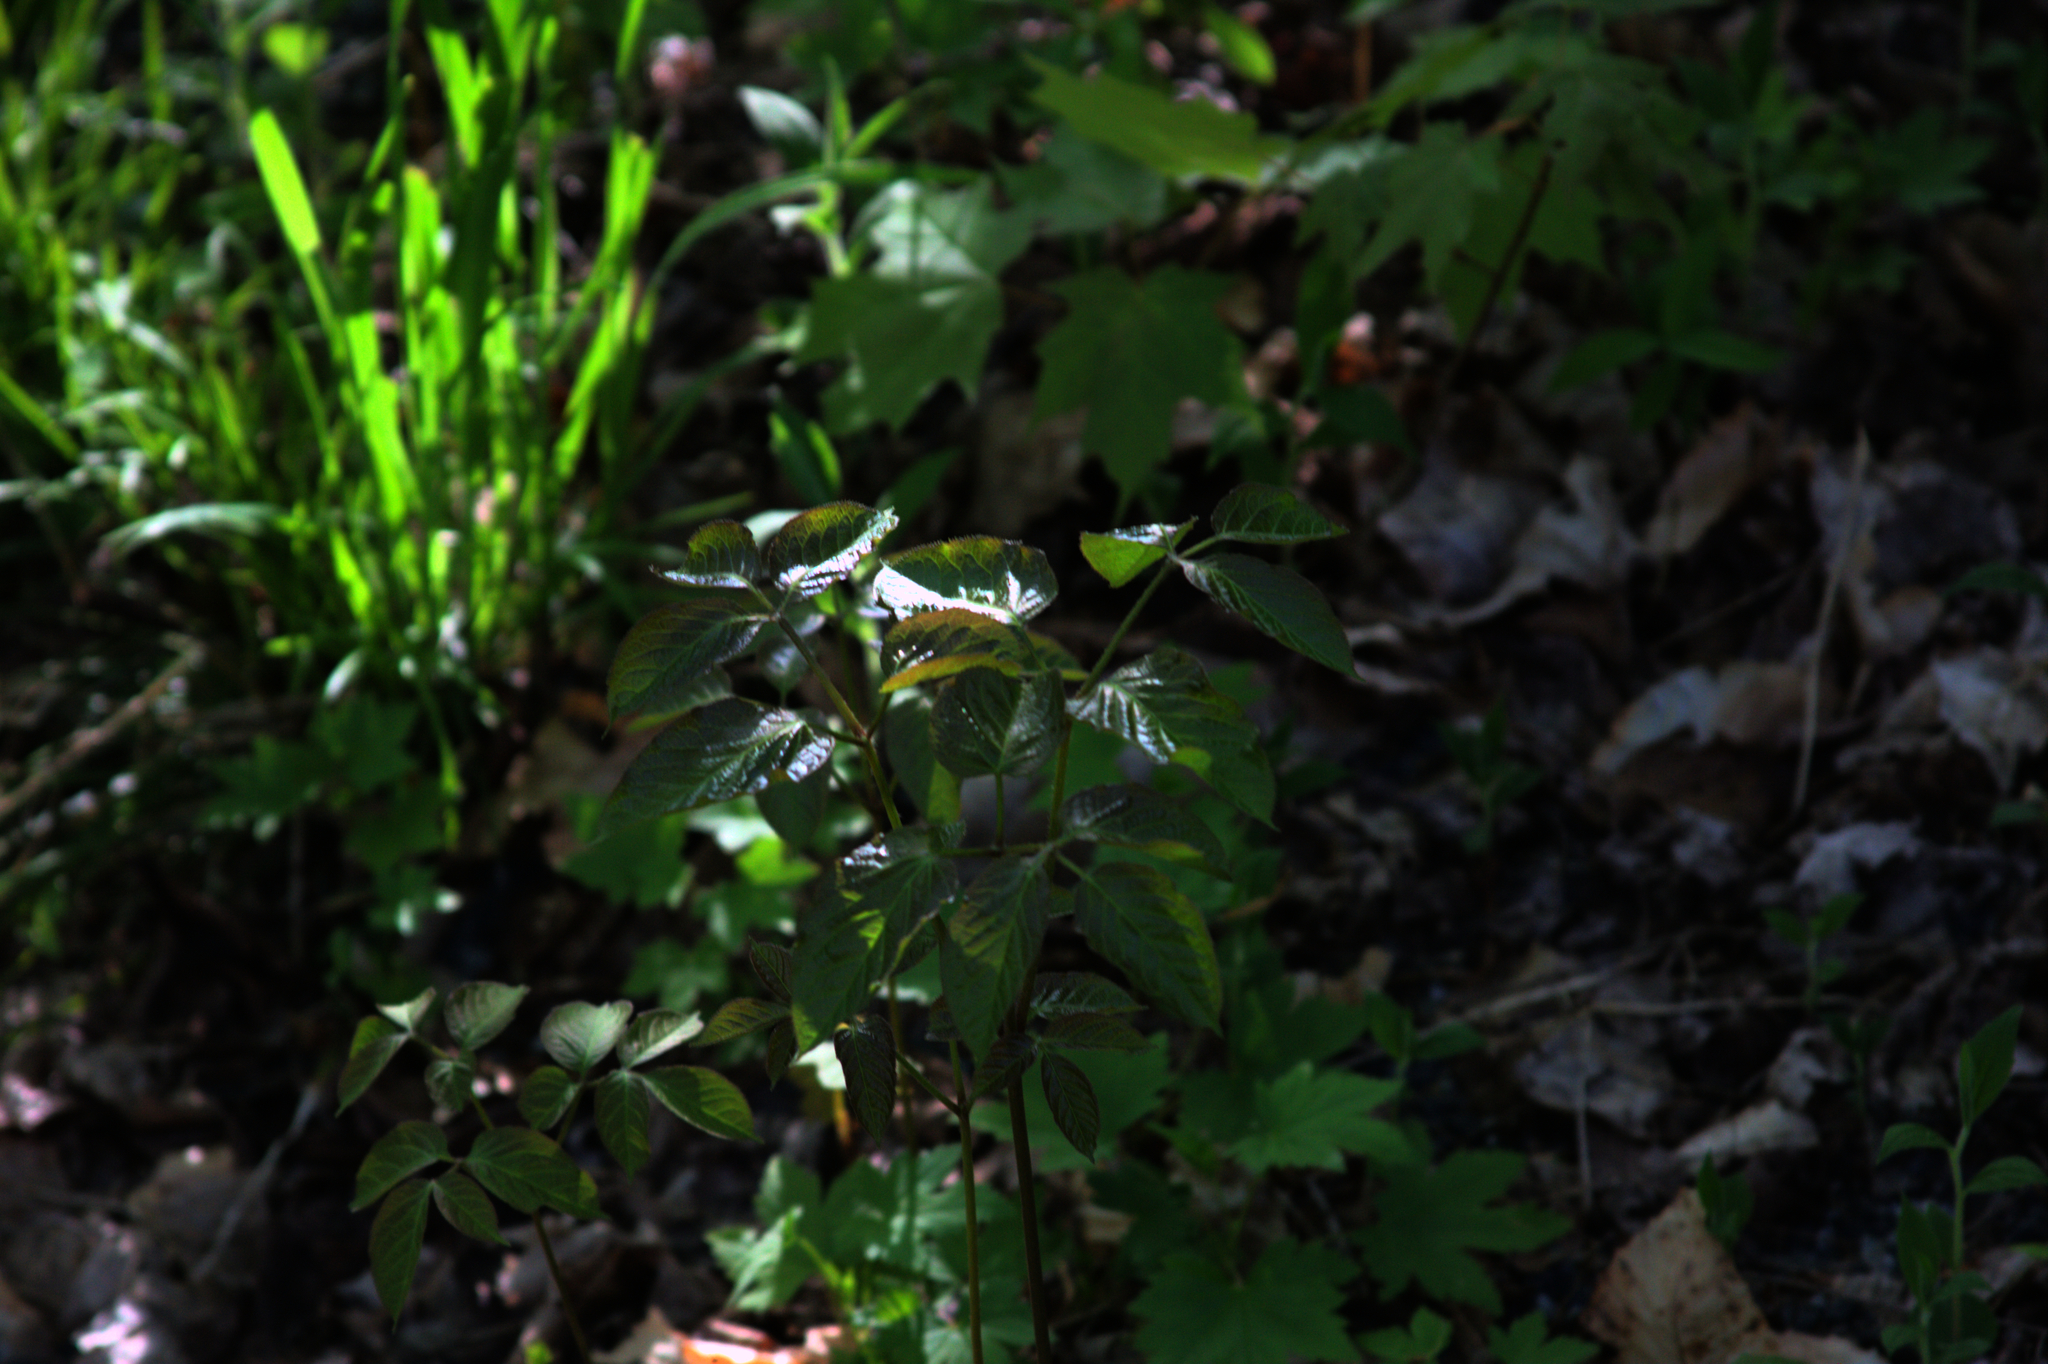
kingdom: Plantae
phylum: Tracheophyta
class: Magnoliopsida
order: Apiales
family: Araliaceae
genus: Aralia
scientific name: Aralia nudicaulis
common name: Wild sarsaparilla
